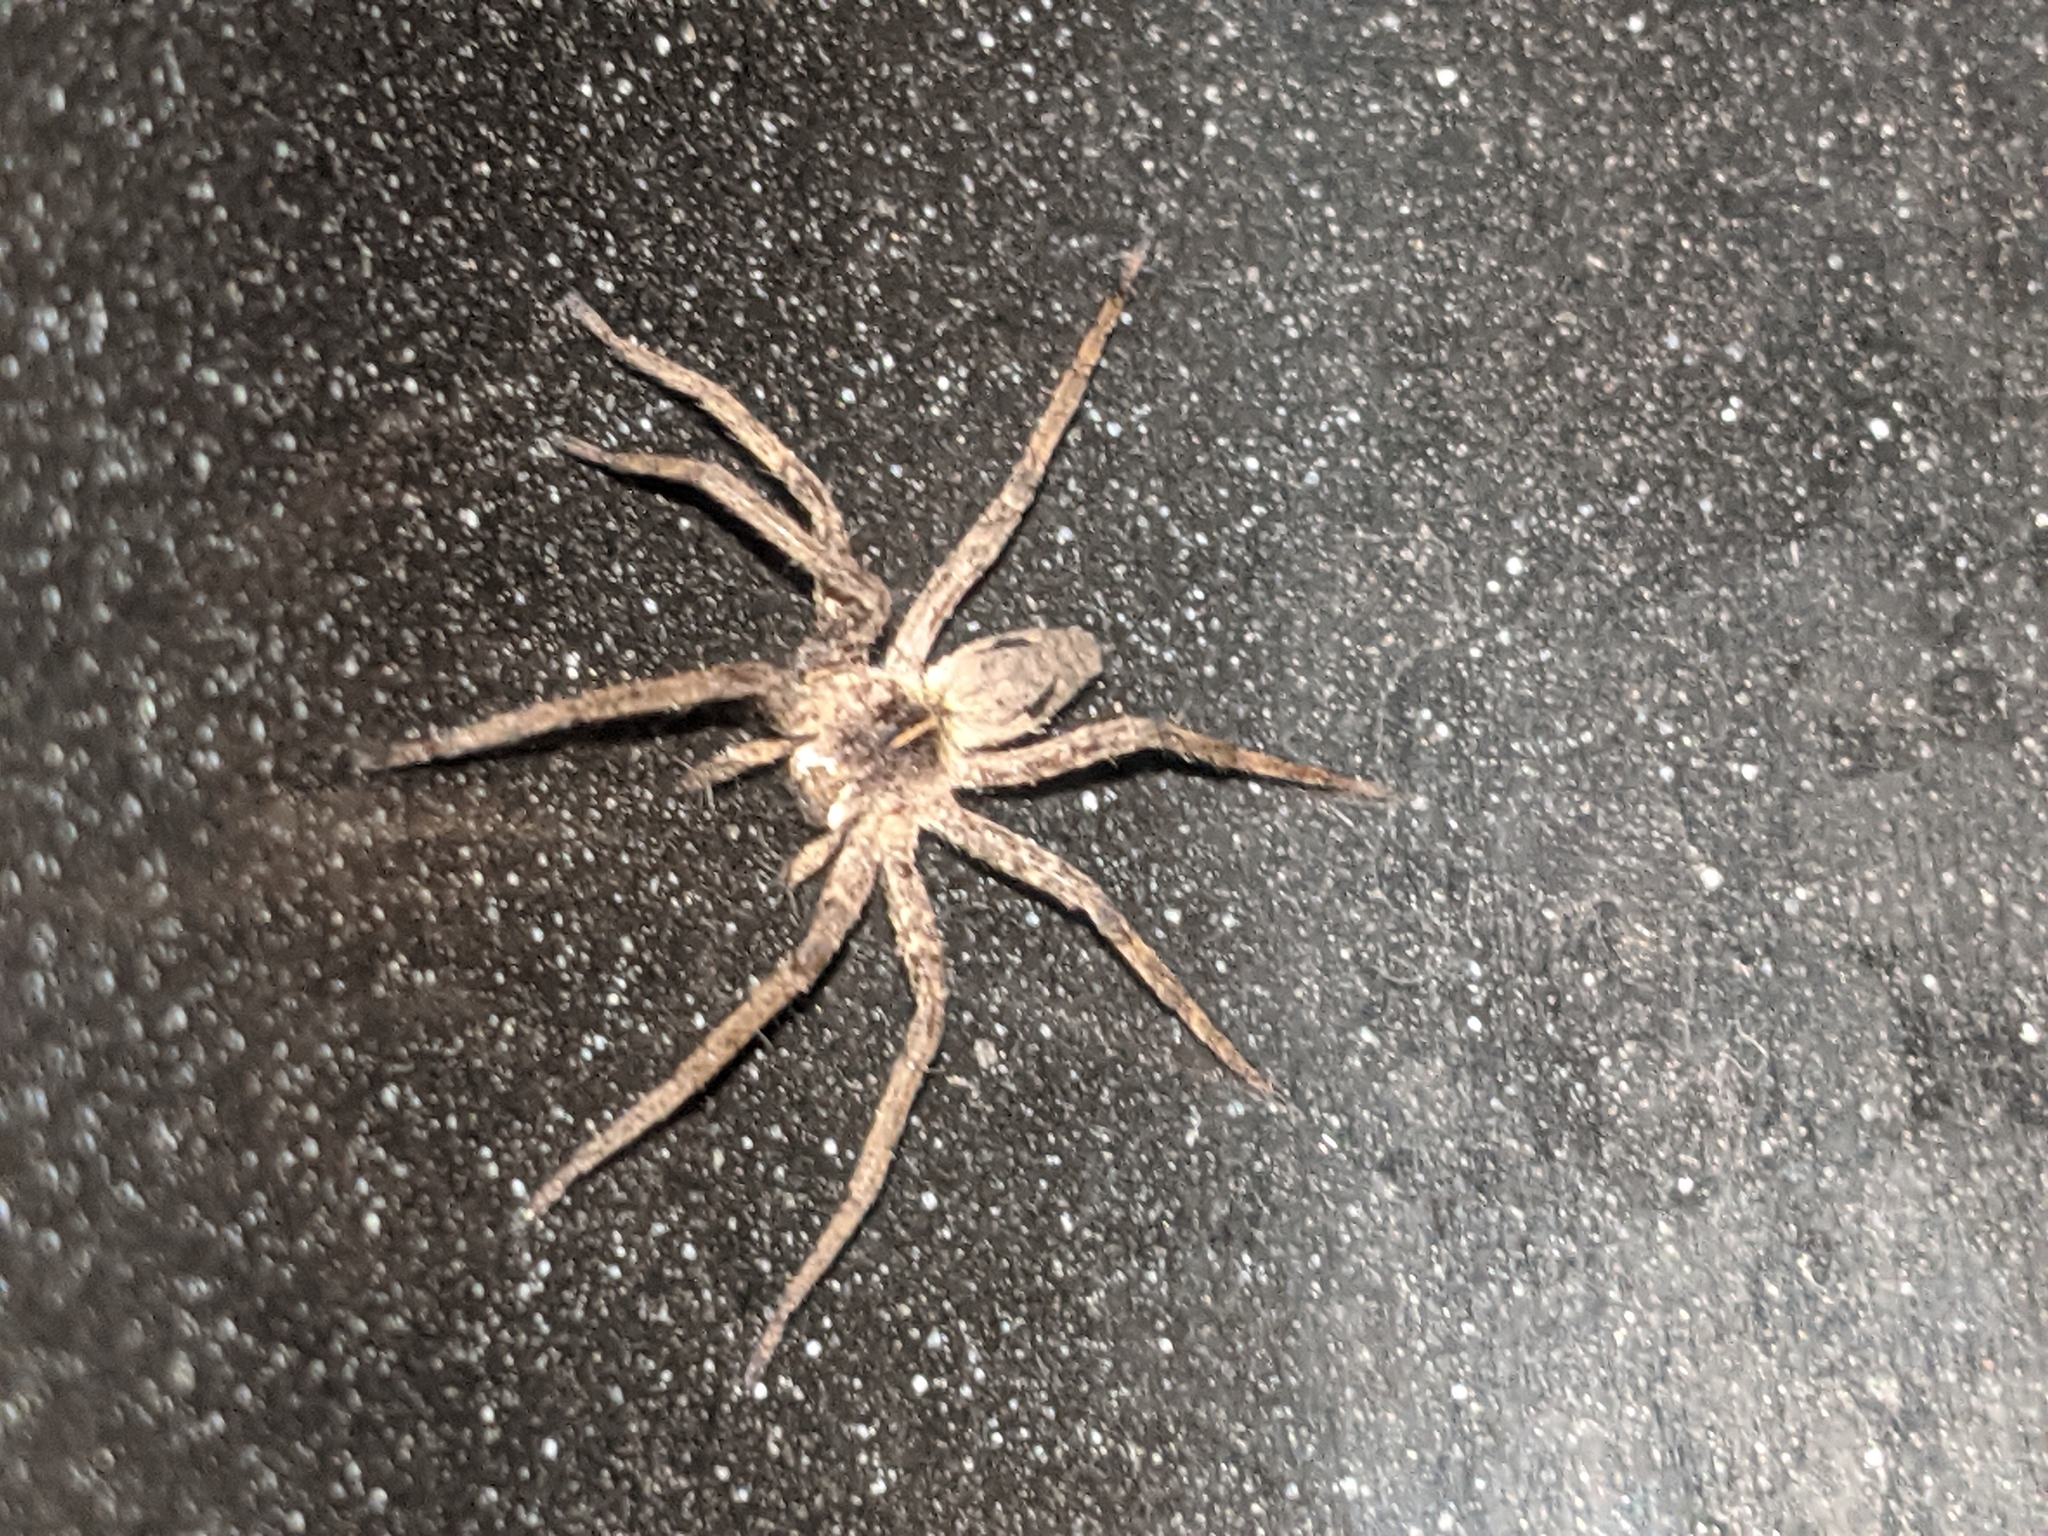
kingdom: Animalia
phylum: Arthropoda
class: Arachnida
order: Araneae
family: Pisauridae
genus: Pisaura
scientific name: Pisaura mirabilis
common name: Tent spider
